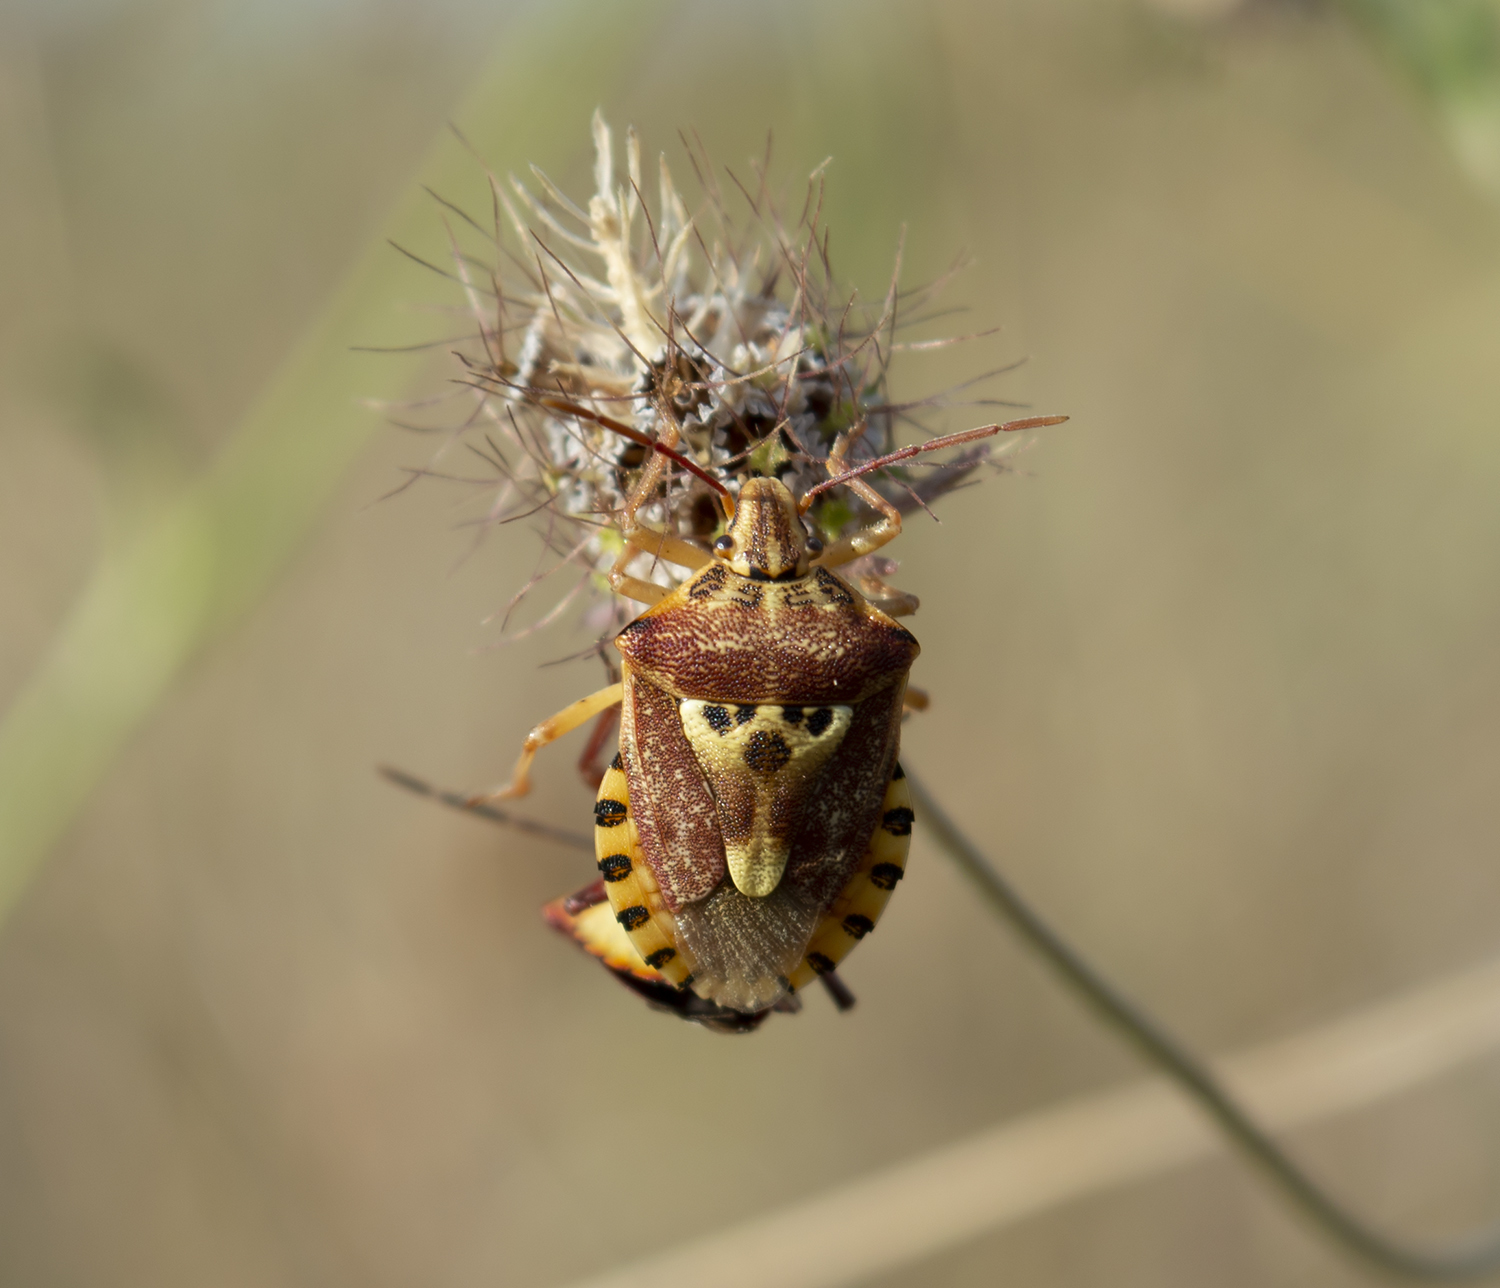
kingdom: Animalia
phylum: Arthropoda
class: Insecta
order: Hemiptera
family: Miridae
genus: Orthops
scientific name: Orthops kalmii
